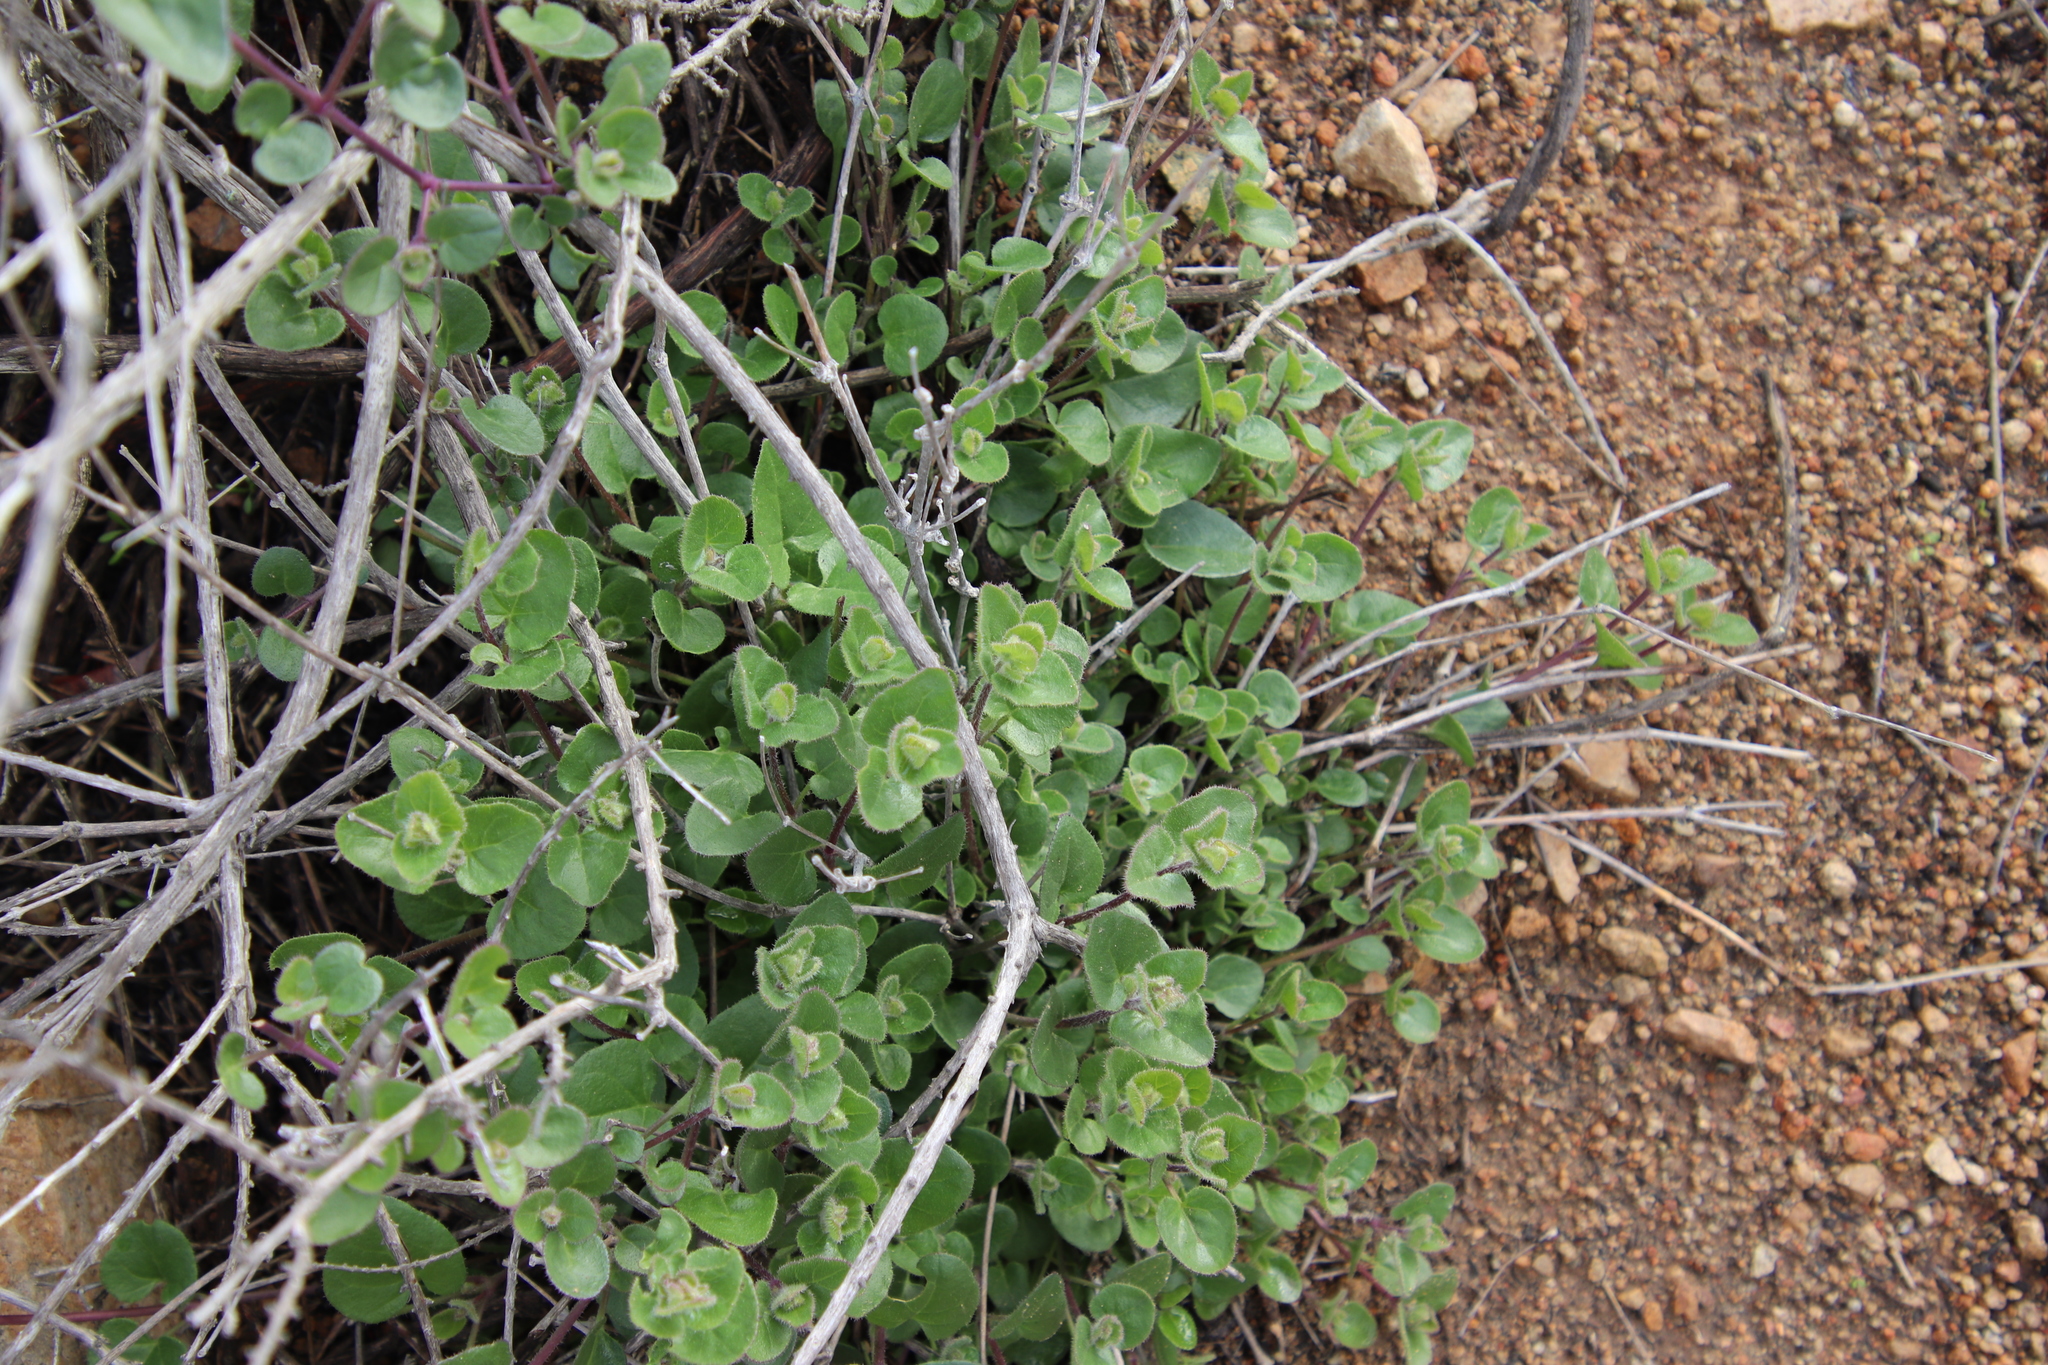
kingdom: Plantae
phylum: Tracheophyta
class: Magnoliopsida
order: Caryophyllales
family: Nyctaginaceae
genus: Mirabilis
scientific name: Mirabilis laevis
